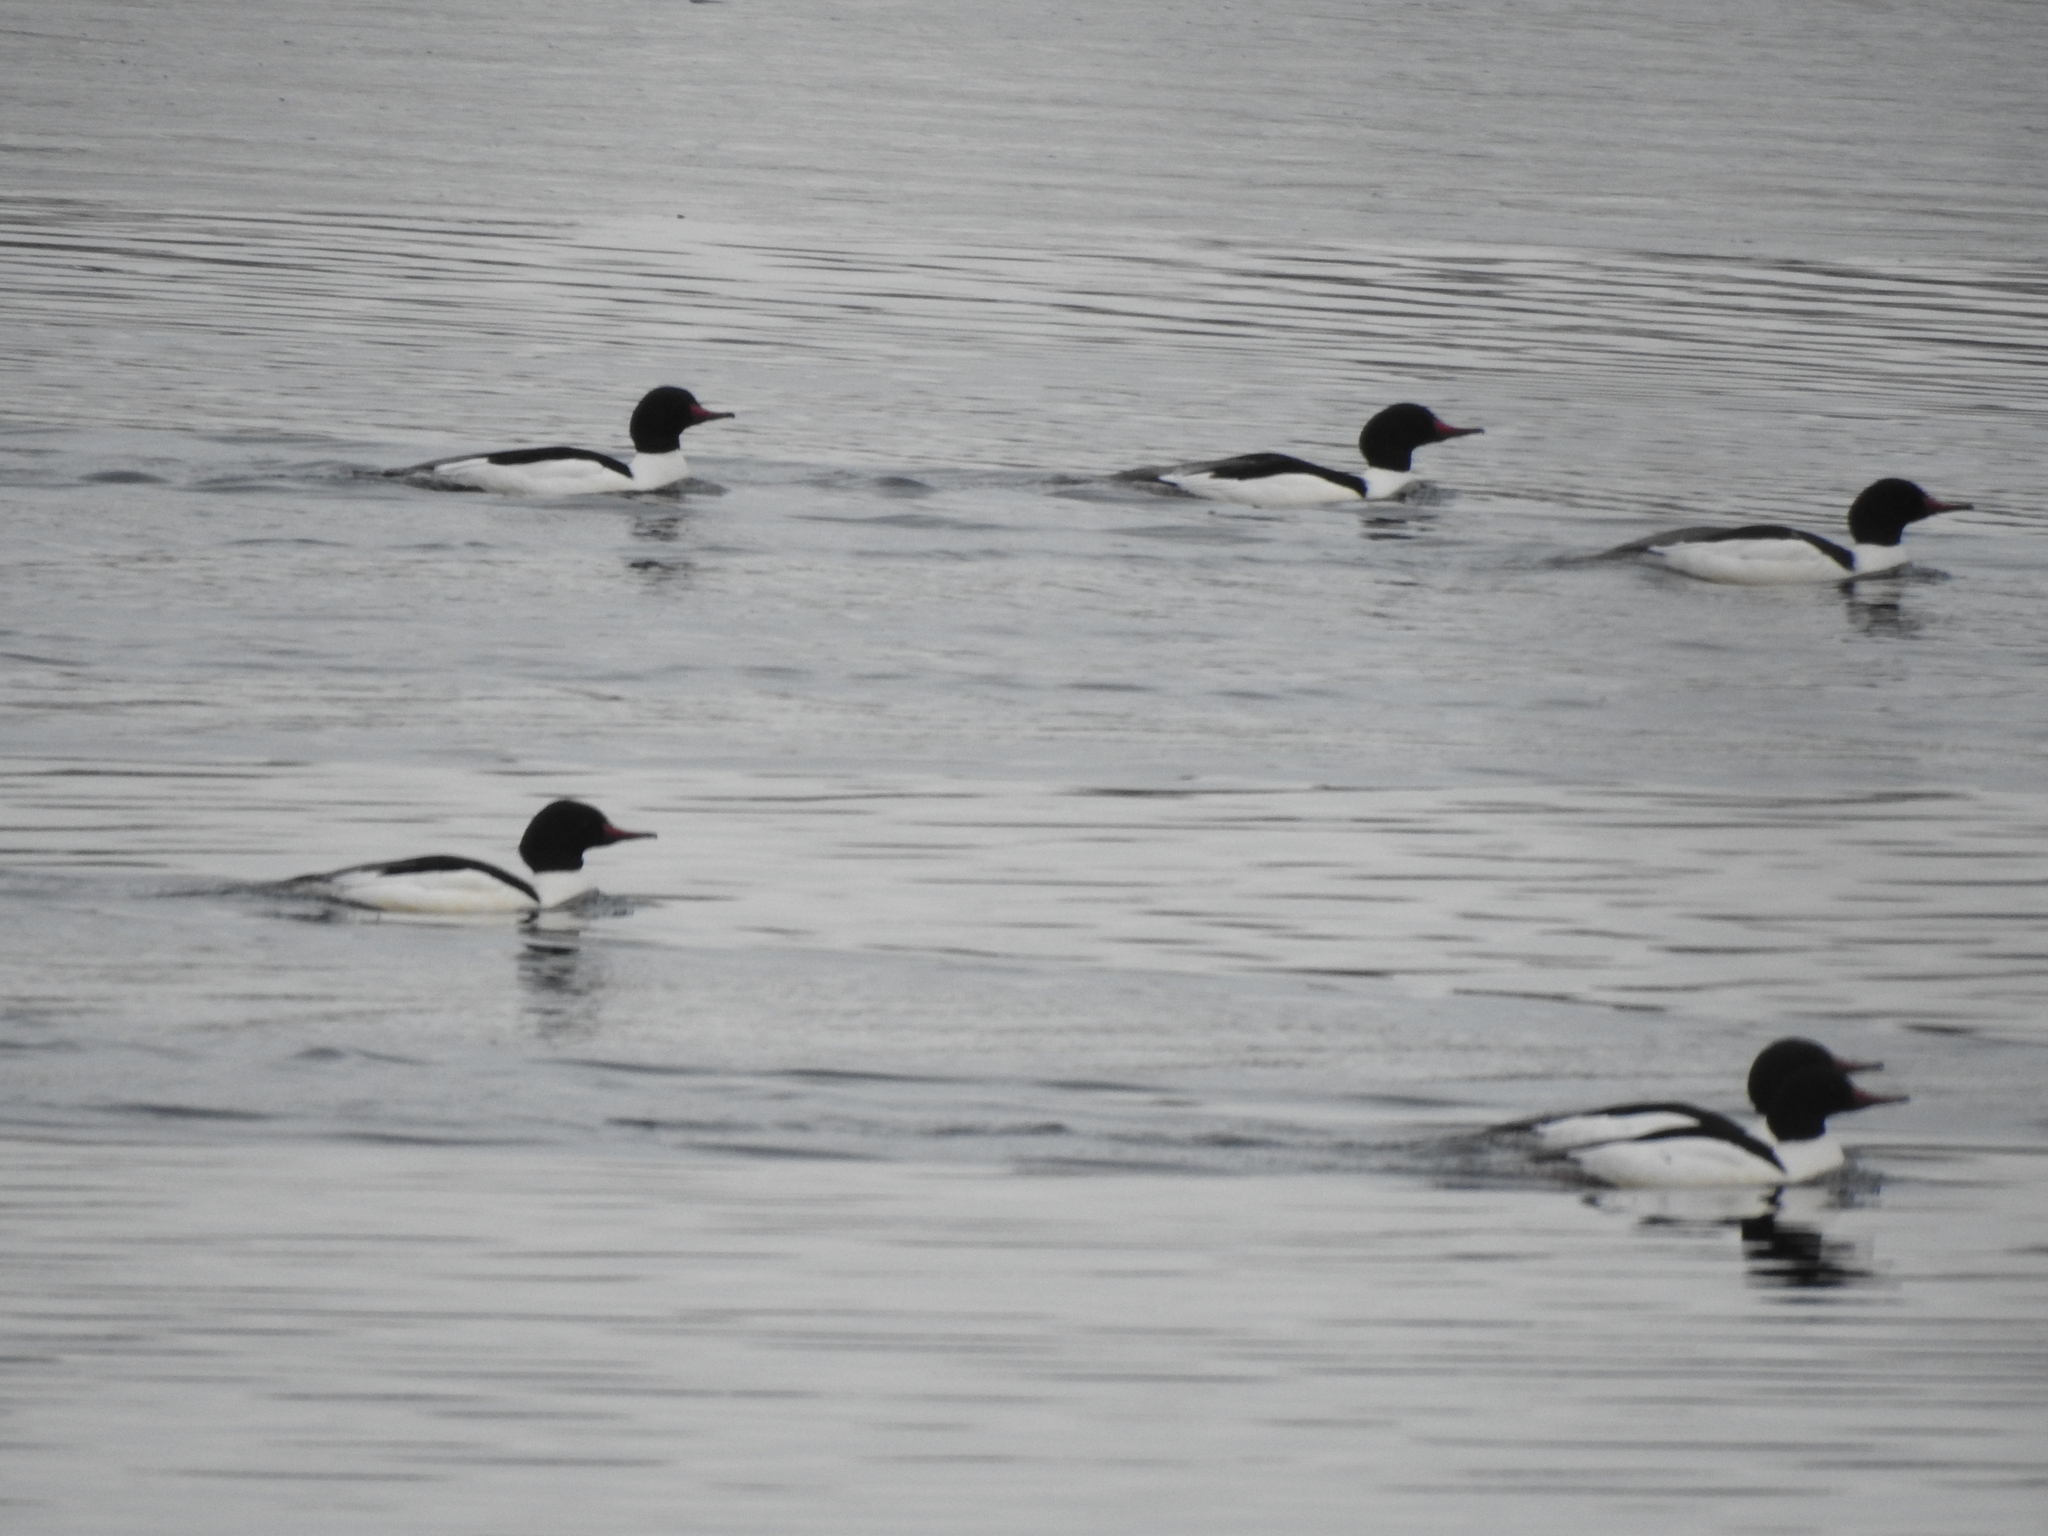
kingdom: Animalia
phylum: Chordata
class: Aves
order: Anseriformes
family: Anatidae
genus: Mergus
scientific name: Mergus merganser
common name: Common merganser
